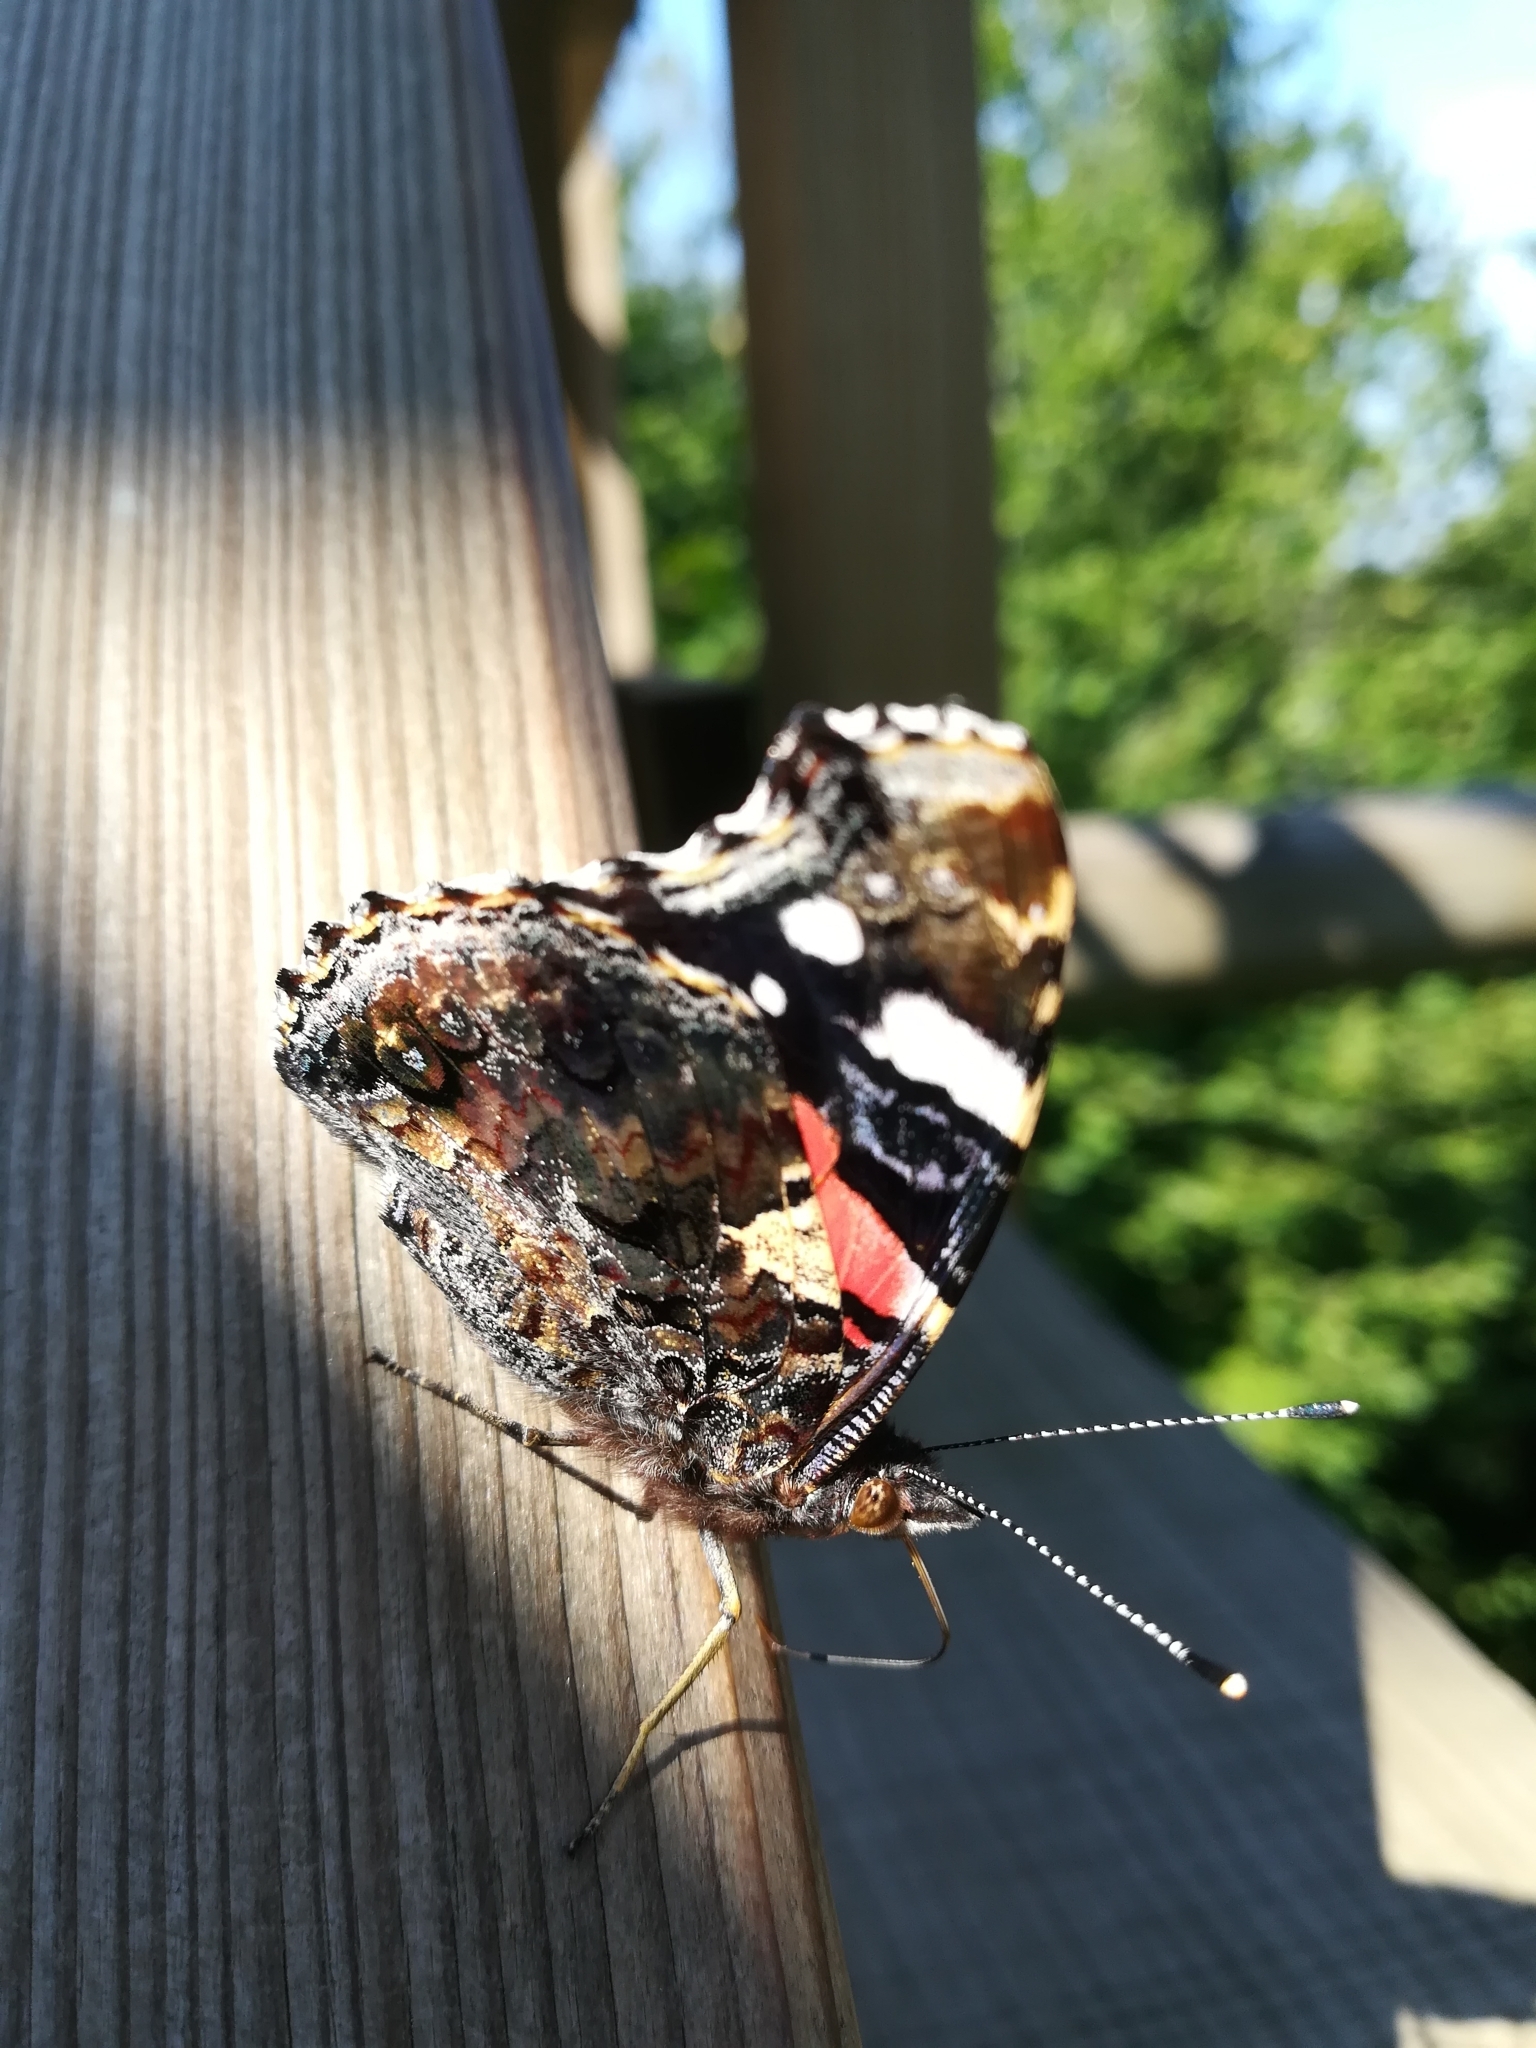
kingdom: Animalia
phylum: Arthropoda
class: Insecta
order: Lepidoptera
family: Nymphalidae
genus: Vanessa
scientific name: Vanessa atalanta
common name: Red admiral
